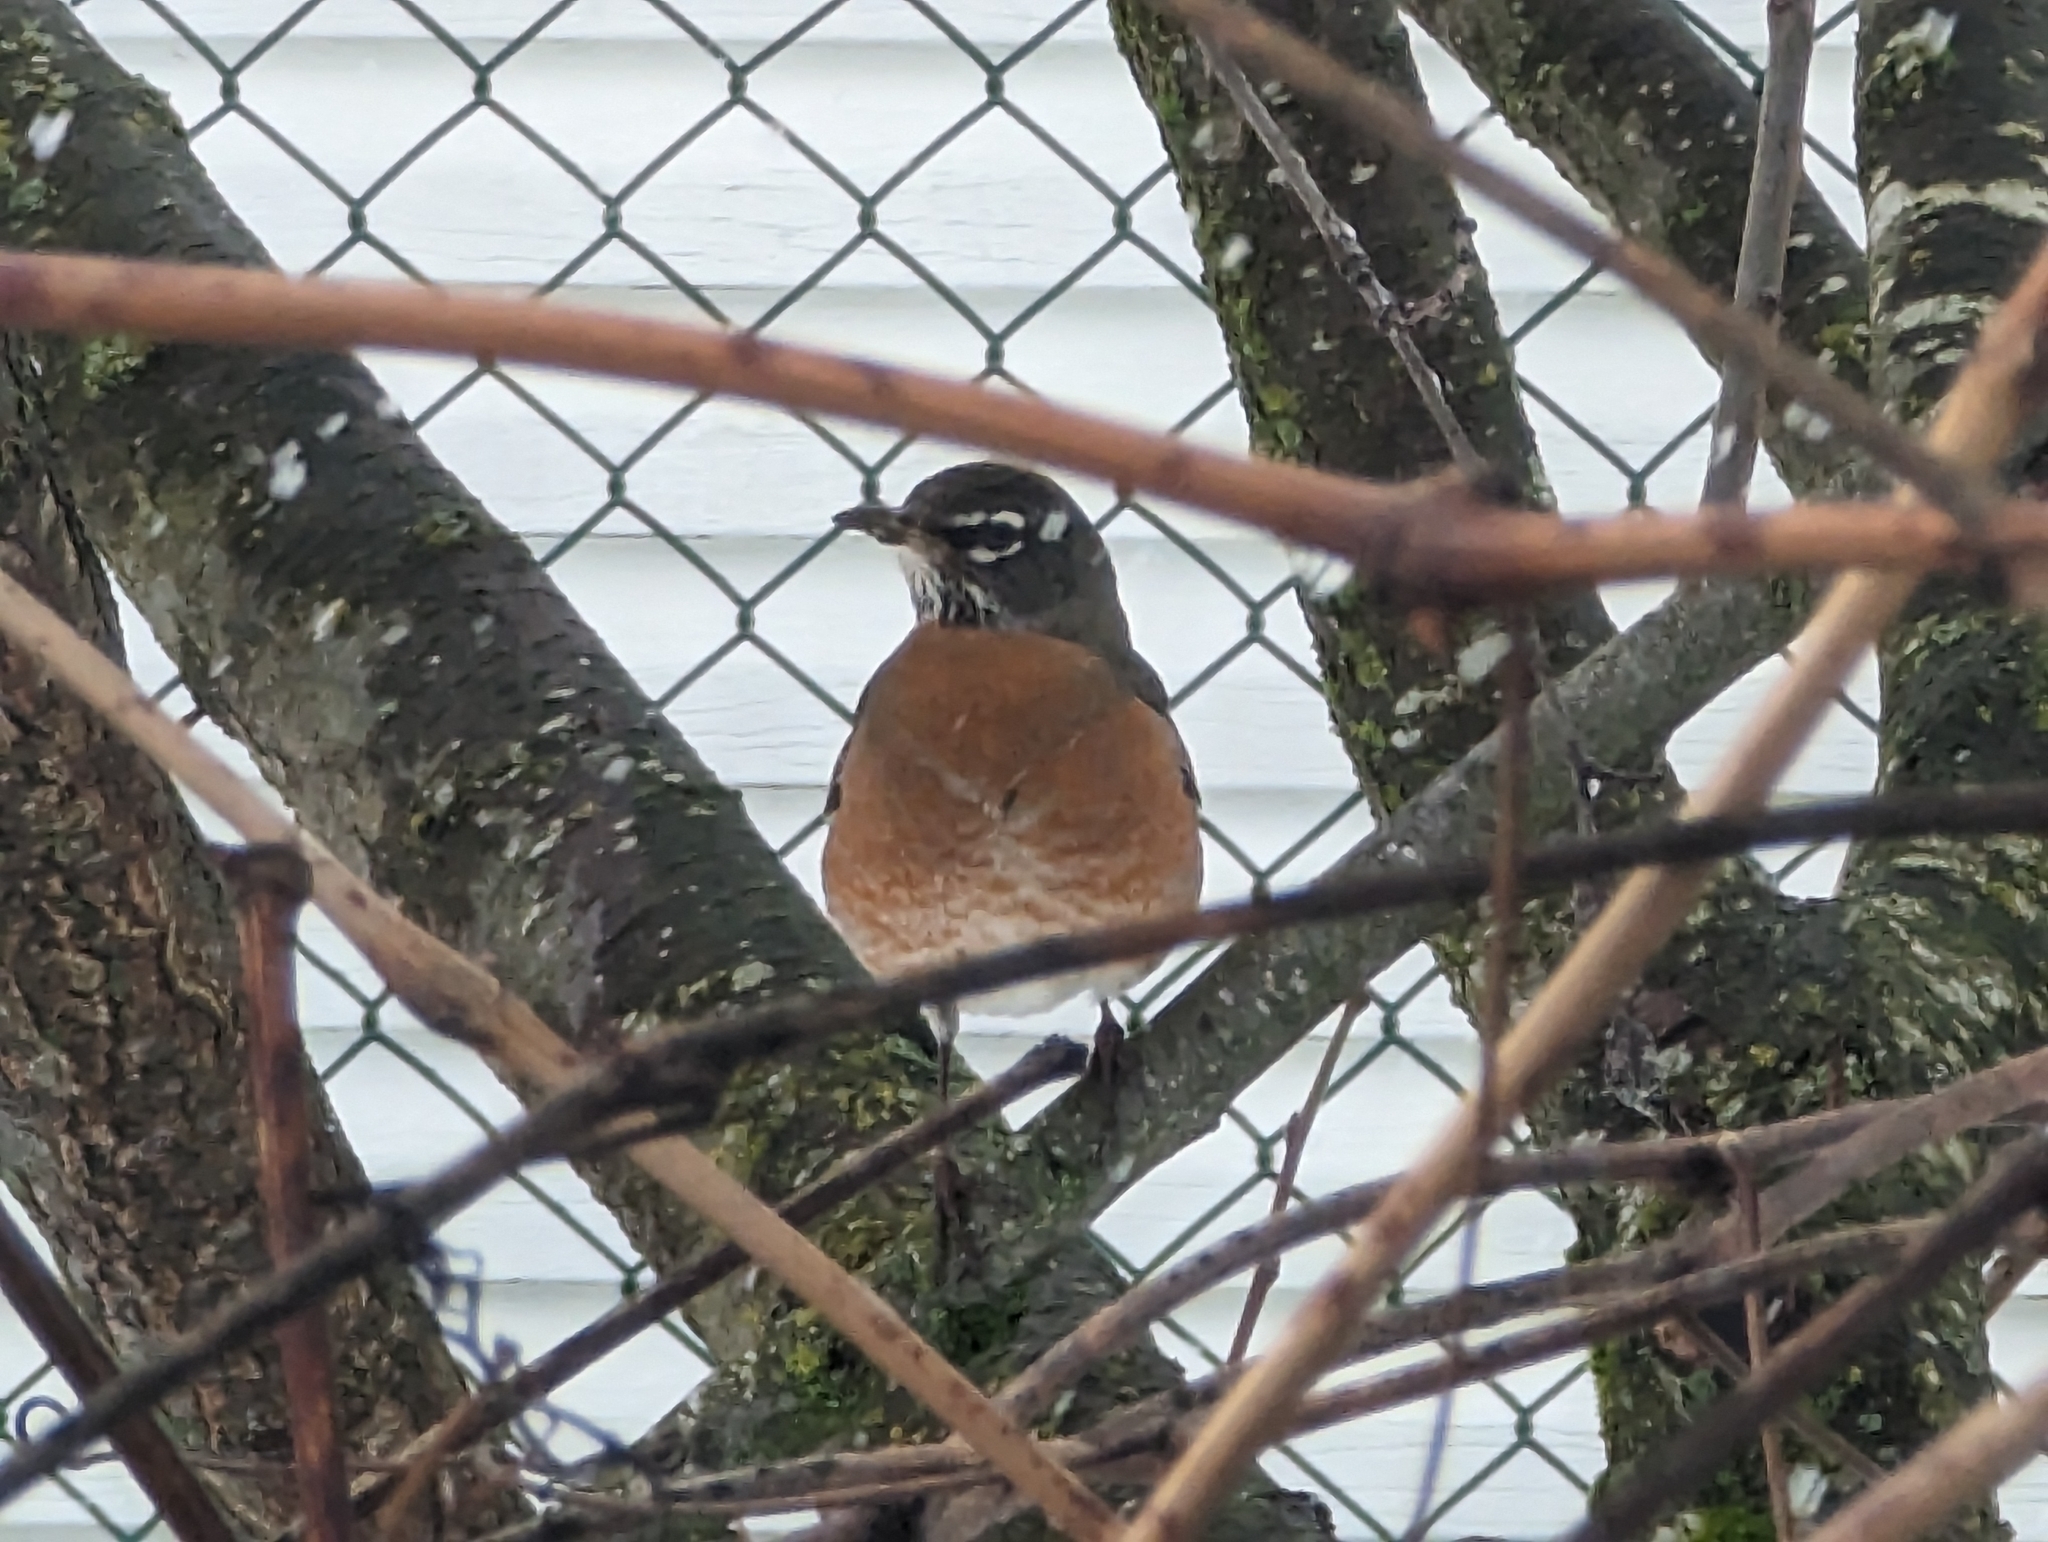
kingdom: Animalia
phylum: Chordata
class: Aves
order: Passeriformes
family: Turdidae
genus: Turdus
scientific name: Turdus migratorius
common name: American robin
